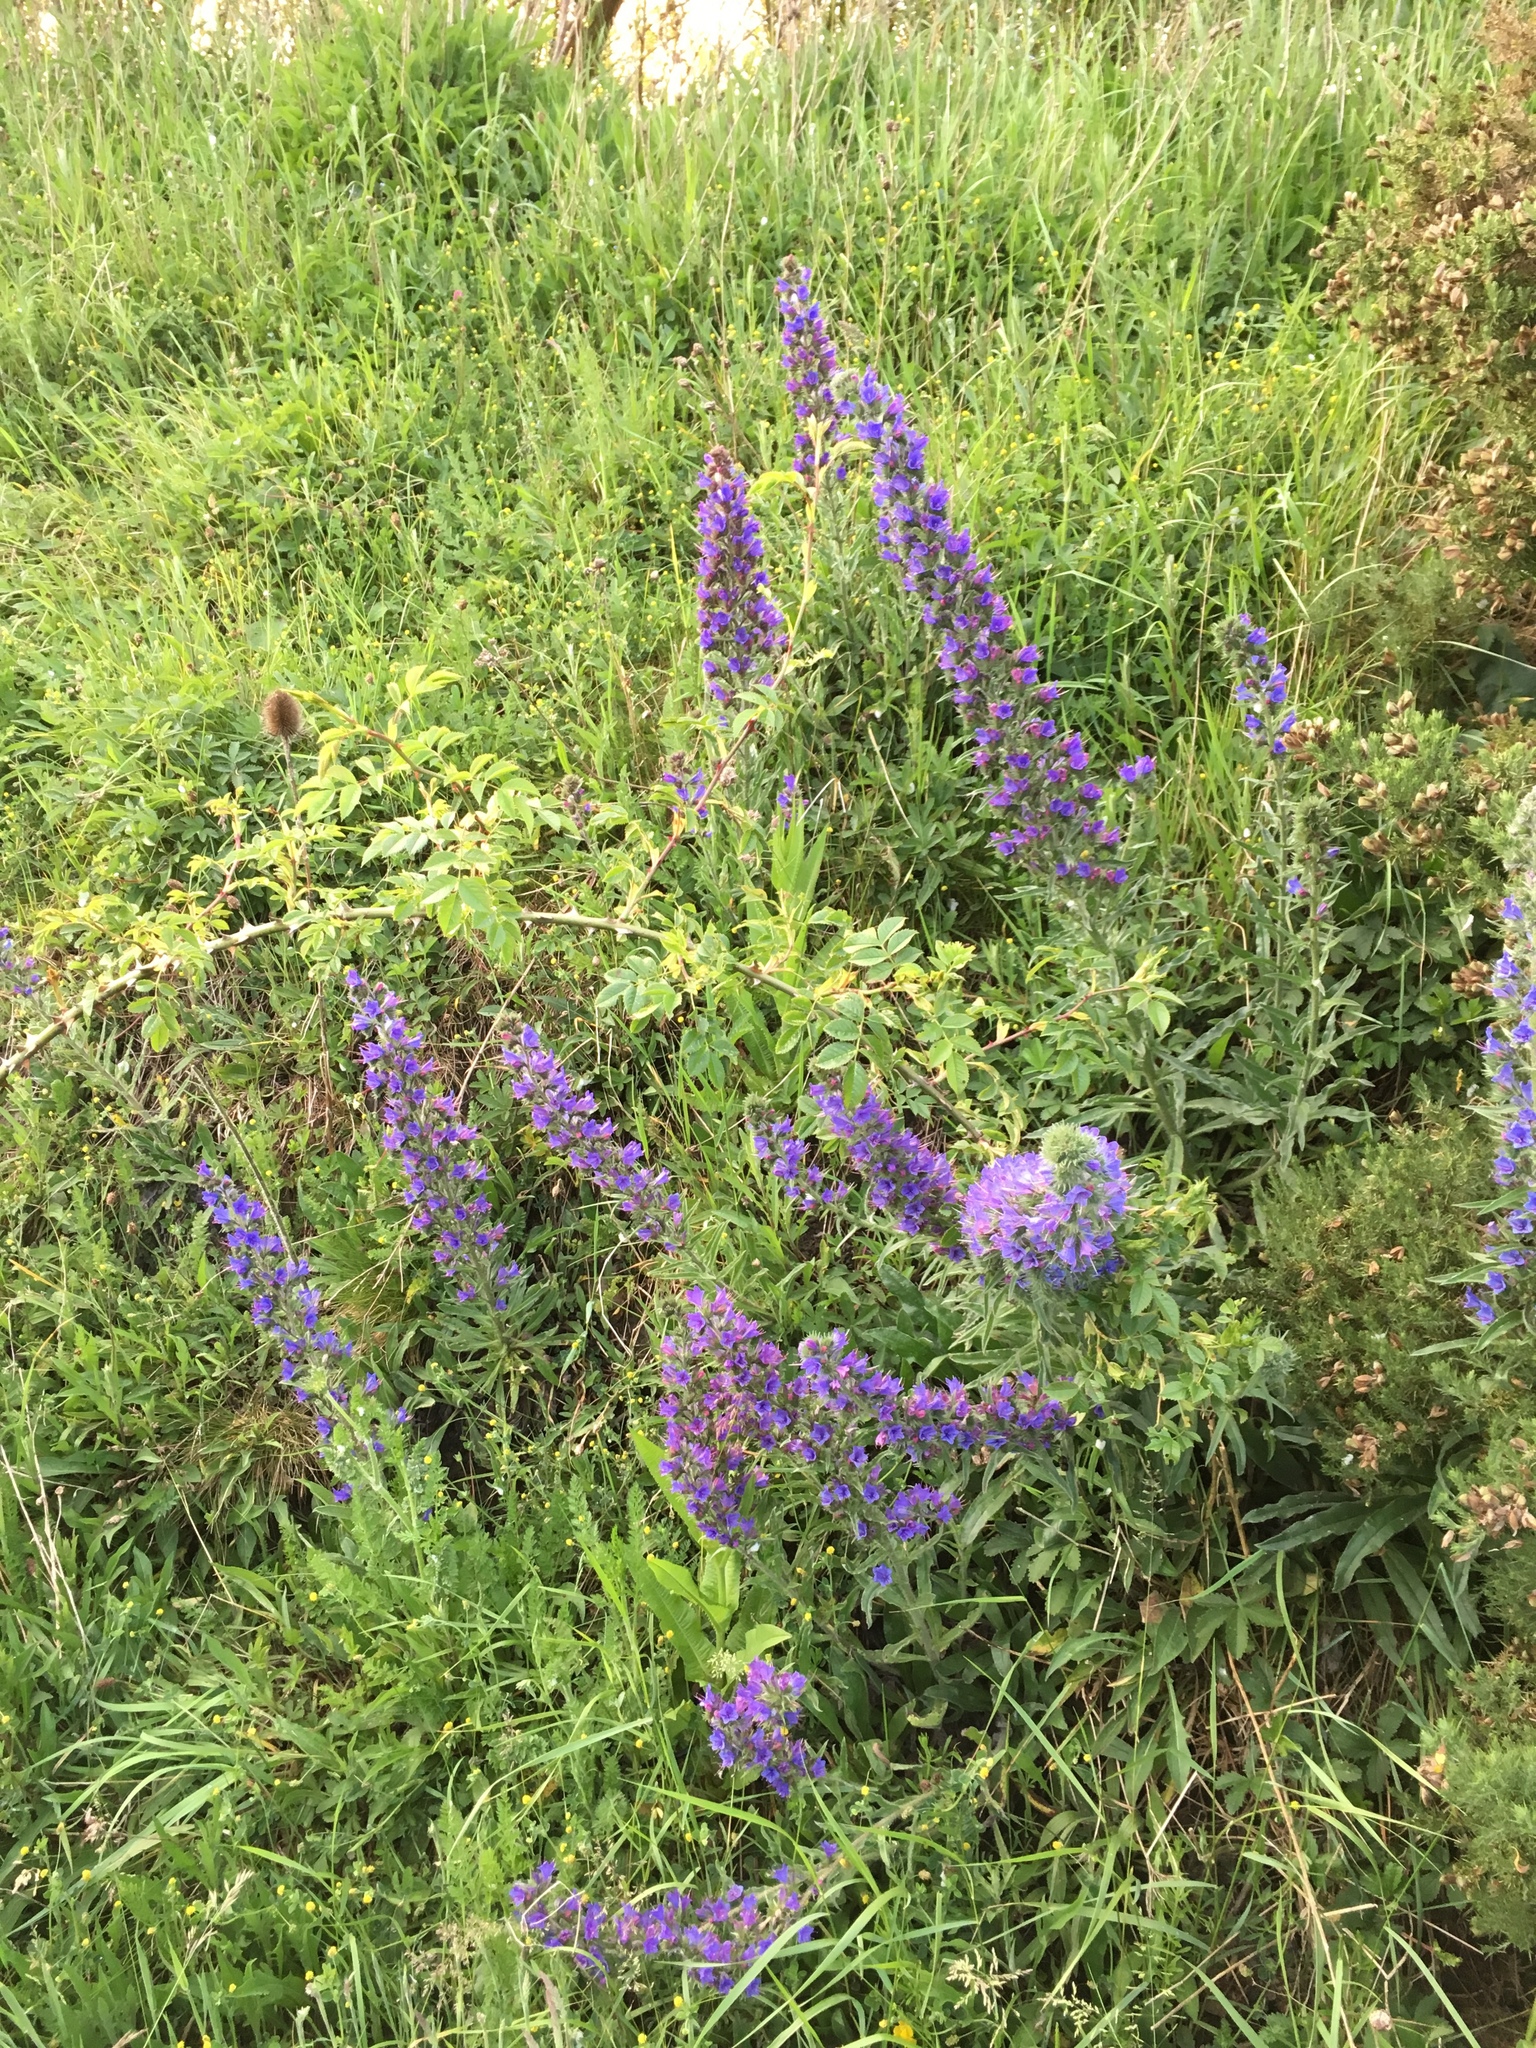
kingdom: Plantae
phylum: Tracheophyta
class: Magnoliopsida
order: Boraginales
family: Boraginaceae
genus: Echium
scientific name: Echium vulgare
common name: Common viper's bugloss
